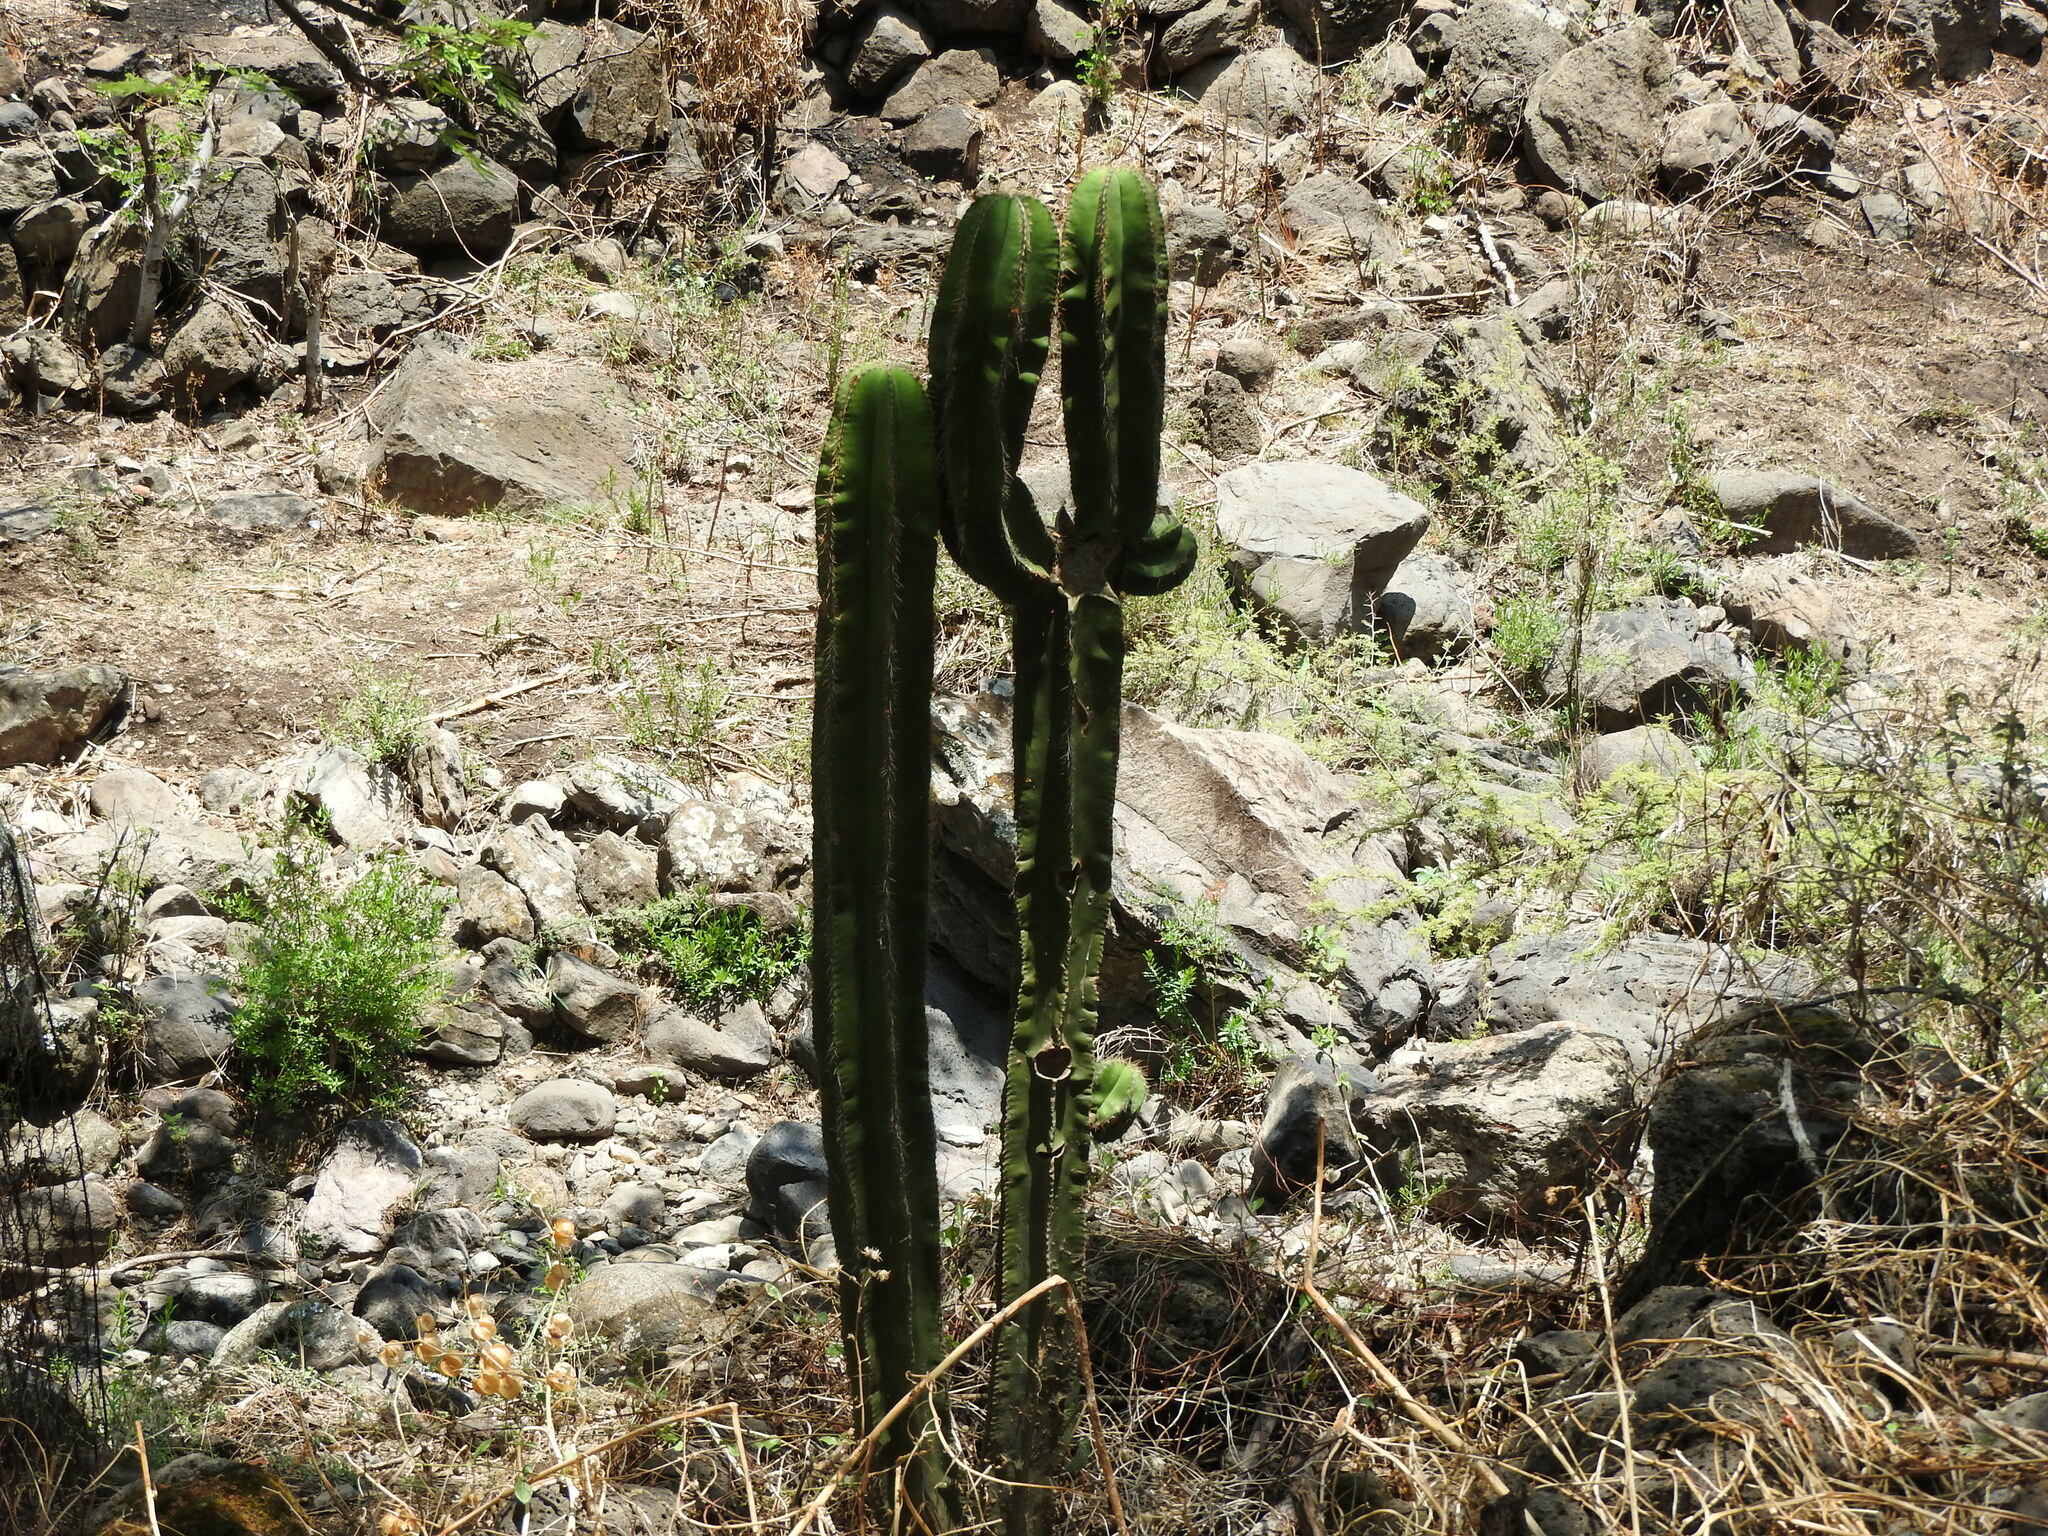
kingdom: Plantae
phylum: Tracheophyta
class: Magnoliopsida
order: Caryophyllales
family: Cactaceae
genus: Stenocereus
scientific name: Stenocereus dumortieri
